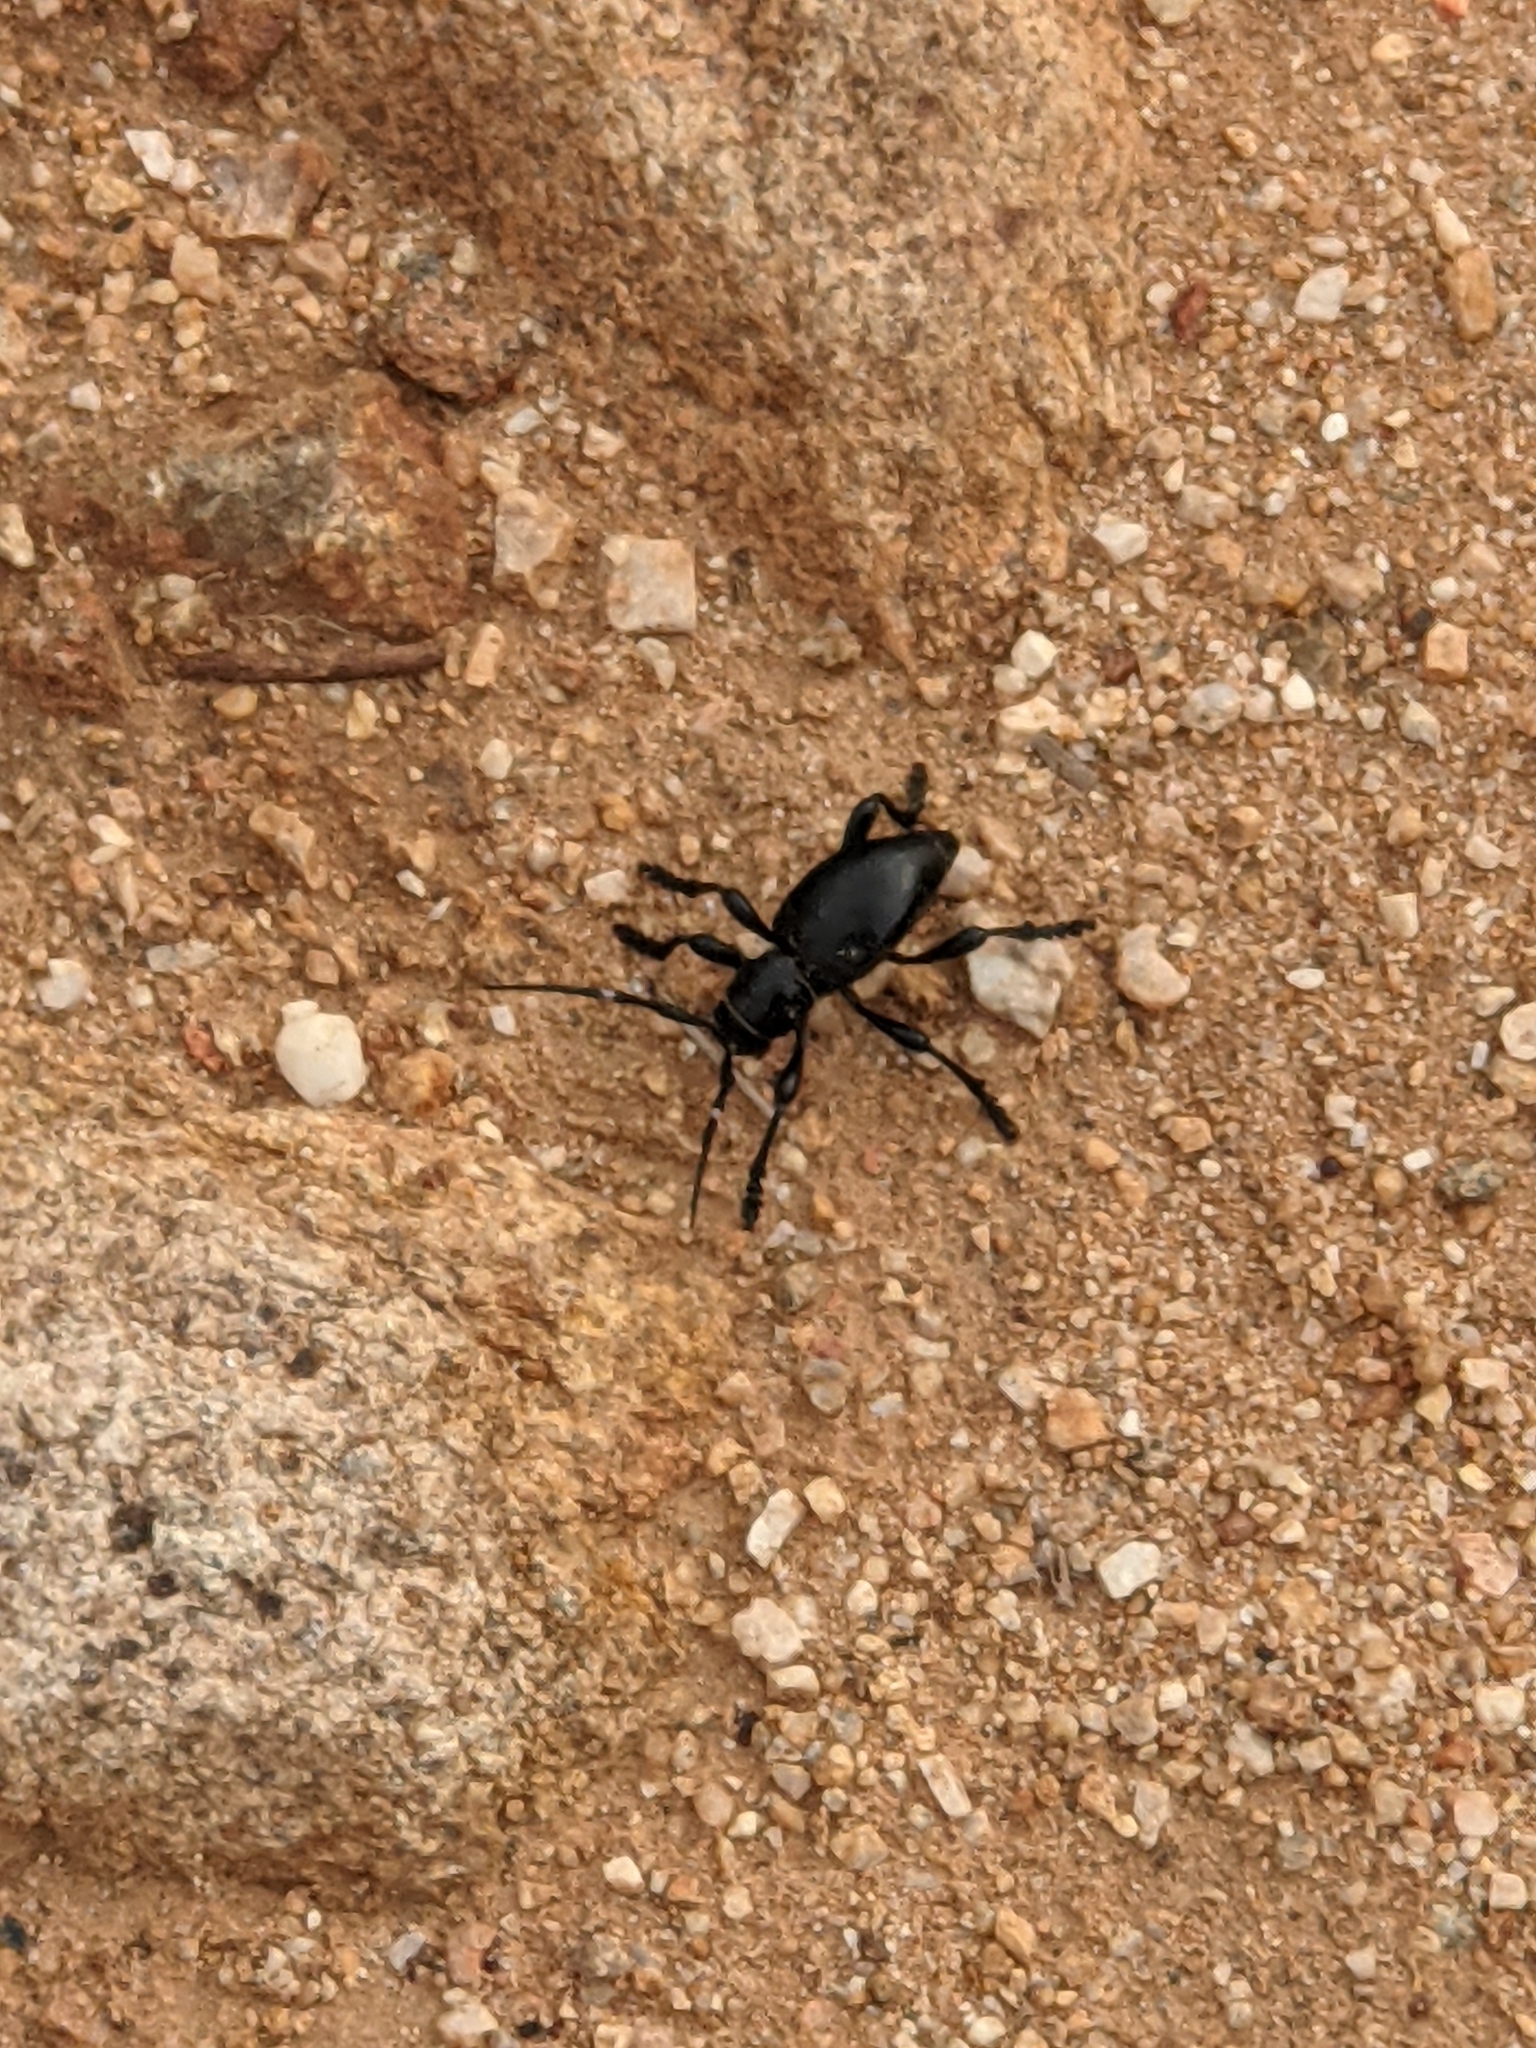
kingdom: Animalia
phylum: Arthropoda
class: Insecta
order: Coleoptera
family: Cerambycidae
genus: Moneilema
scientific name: Moneilema gigas
